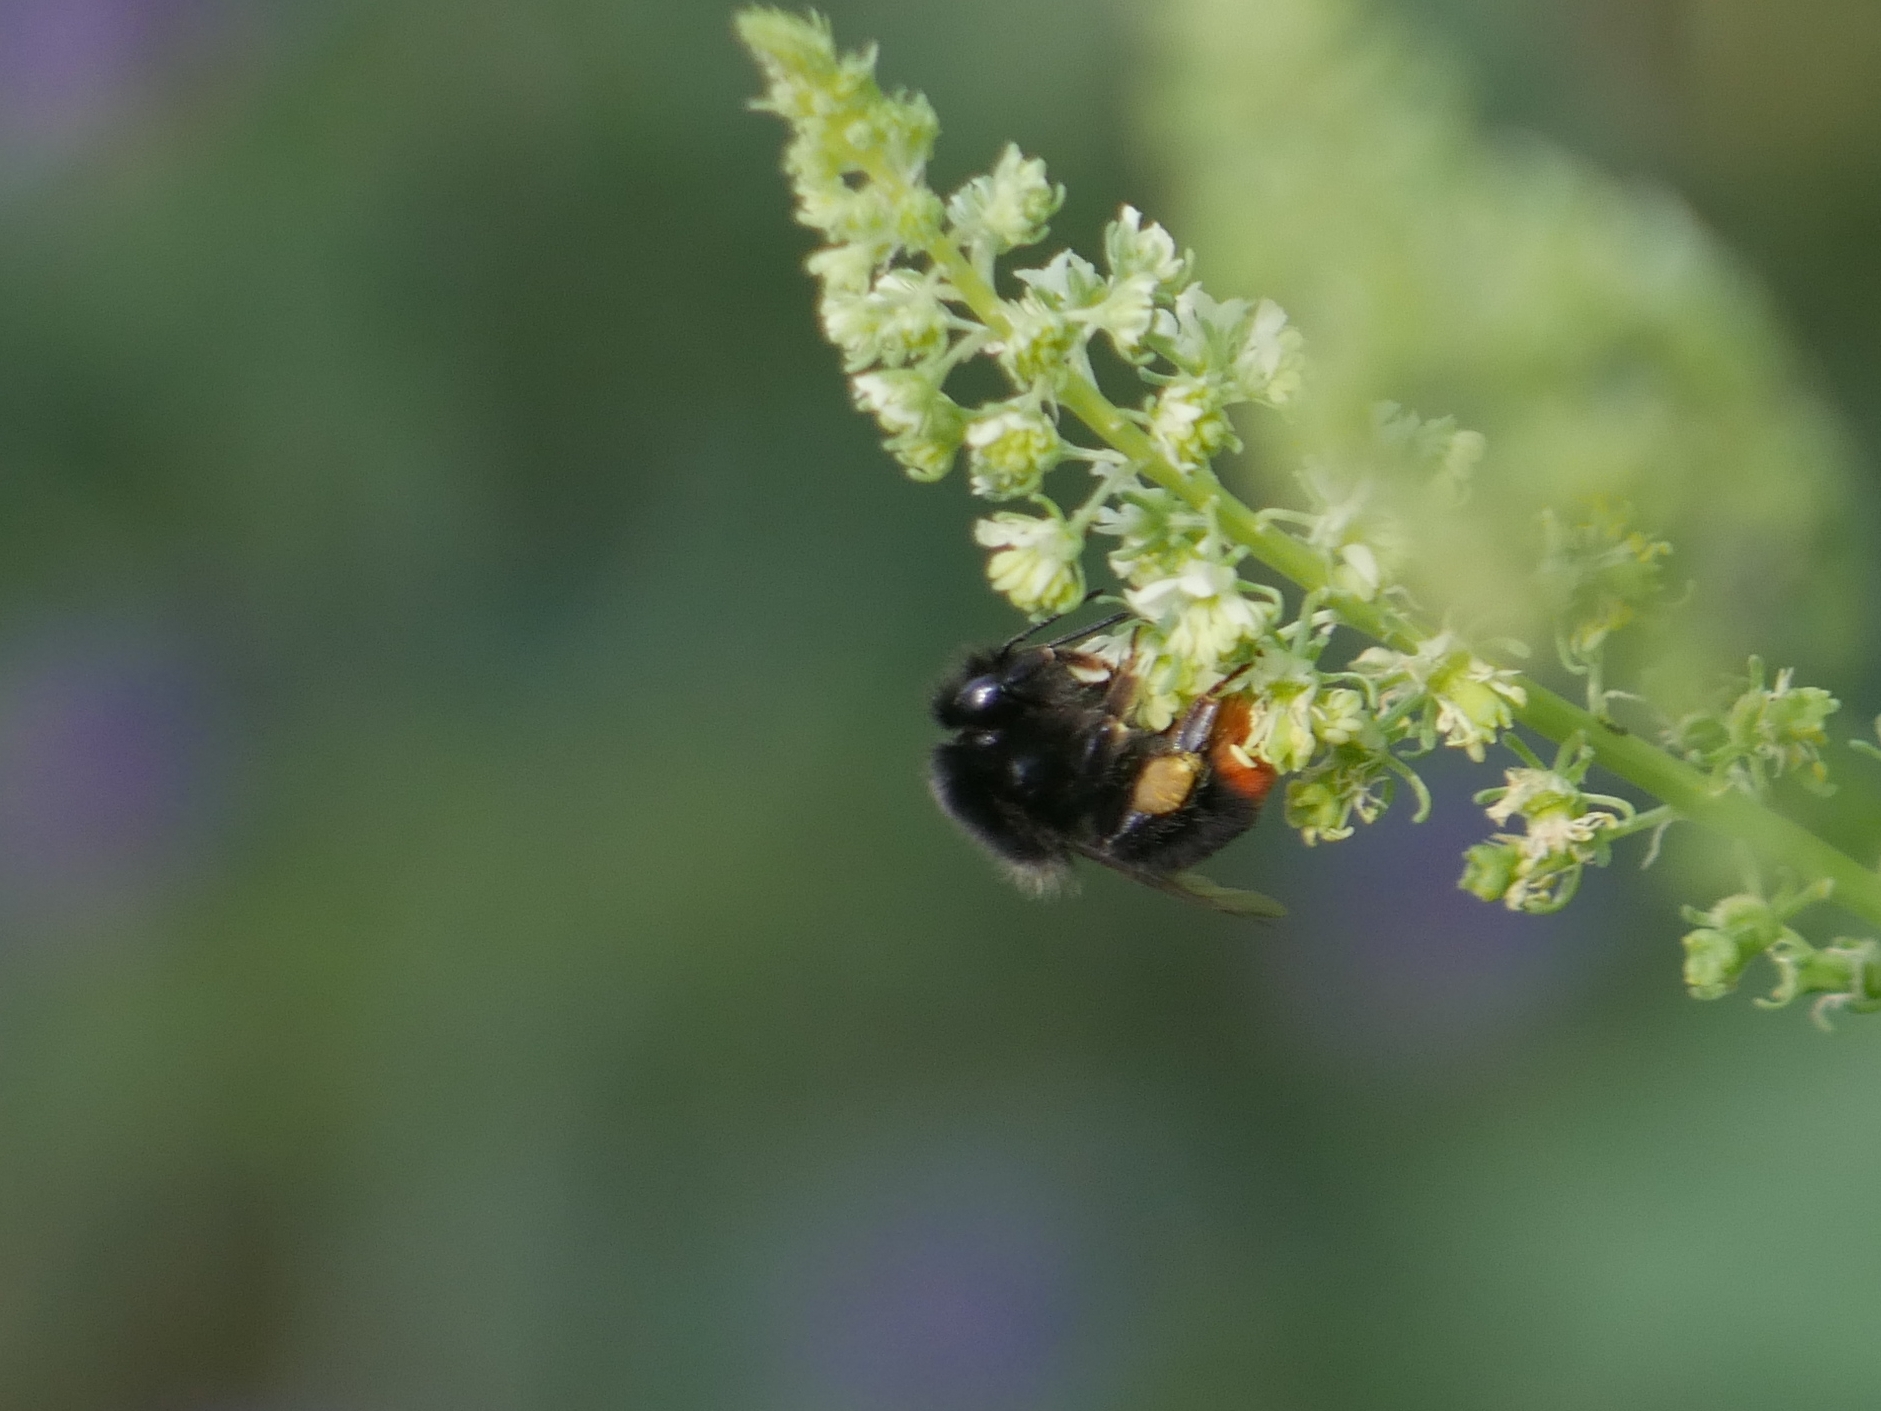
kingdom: Animalia
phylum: Arthropoda
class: Insecta
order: Hymenoptera
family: Apidae
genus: Bombus
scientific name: Bombus lapidarius
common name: Large red-tailed humble-bee
